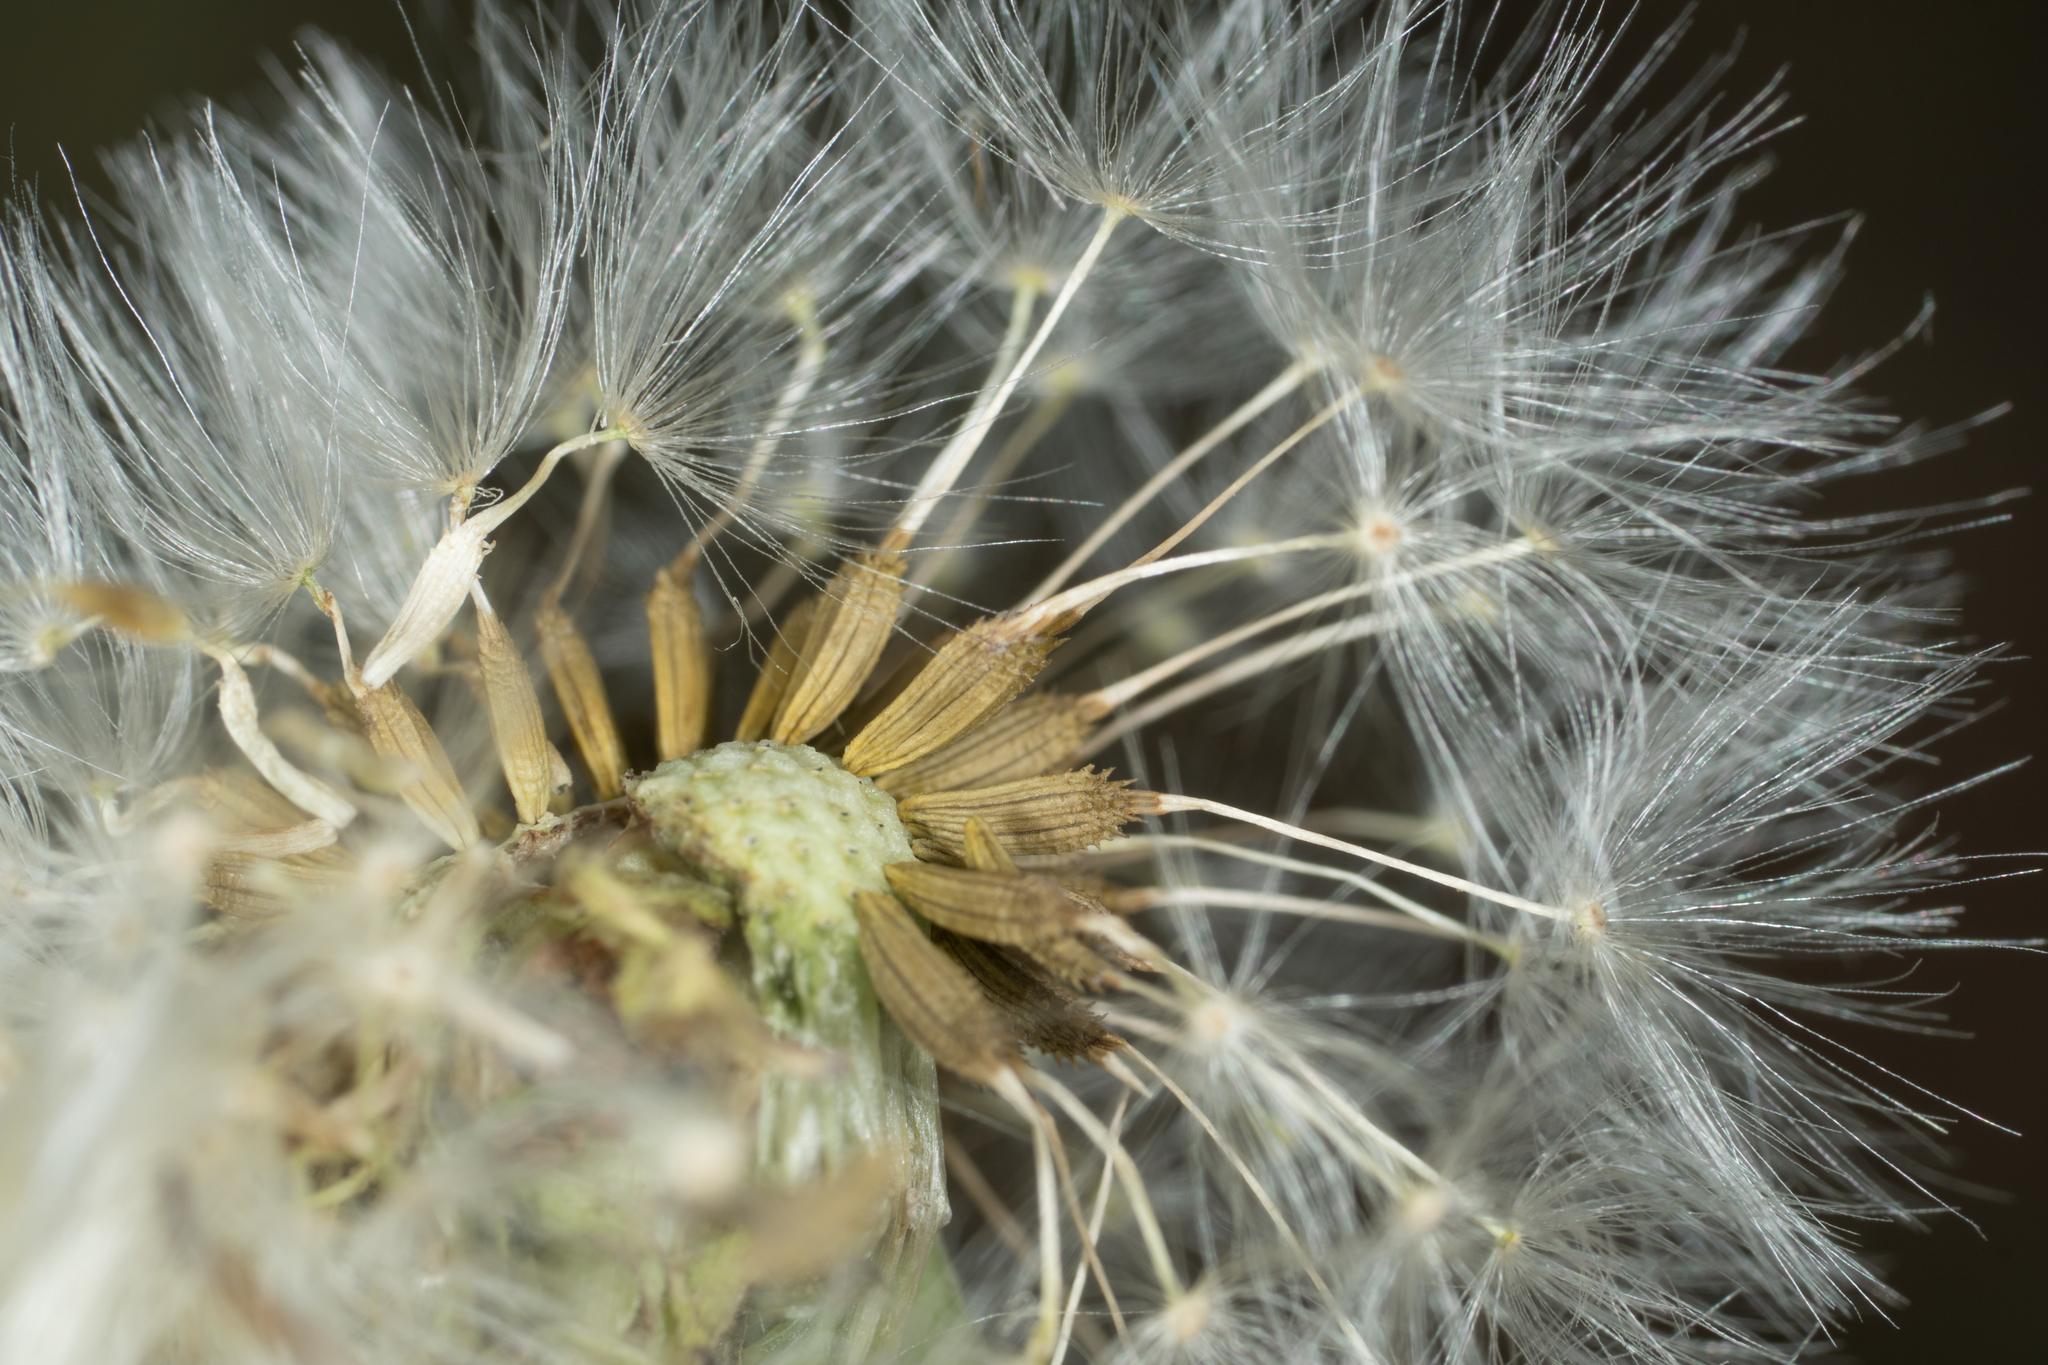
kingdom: Plantae
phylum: Tracheophyta
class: Magnoliopsida
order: Asterales
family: Asteraceae
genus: Taraxacum
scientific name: Taraxacum officinale
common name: Common dandelion
